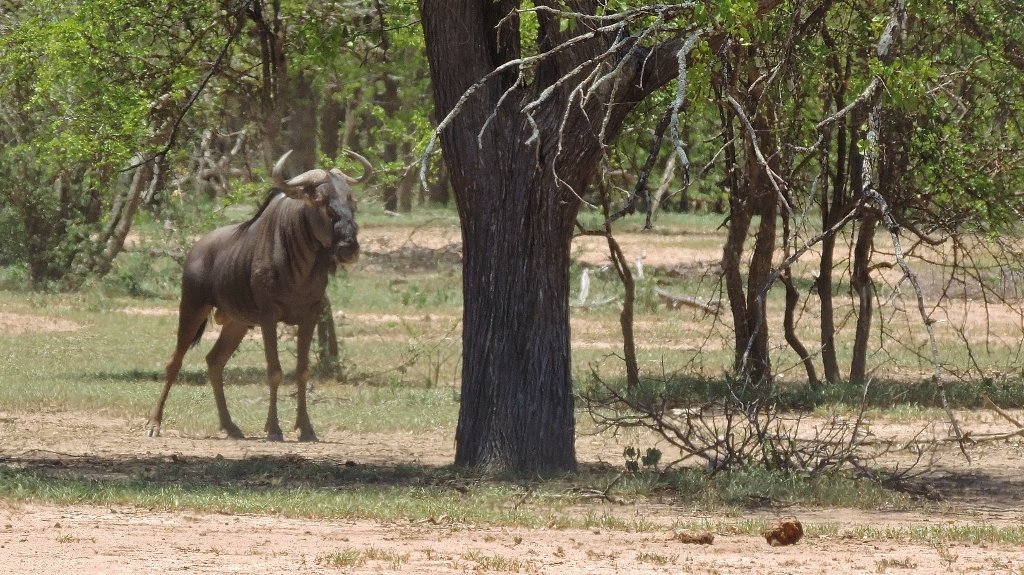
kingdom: Animalia
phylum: Chordata
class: Mammalia
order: Artiodactyla
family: Bovidae
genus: Connochaetes
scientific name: Connochaetes taurinus
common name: Blue wildebeest
